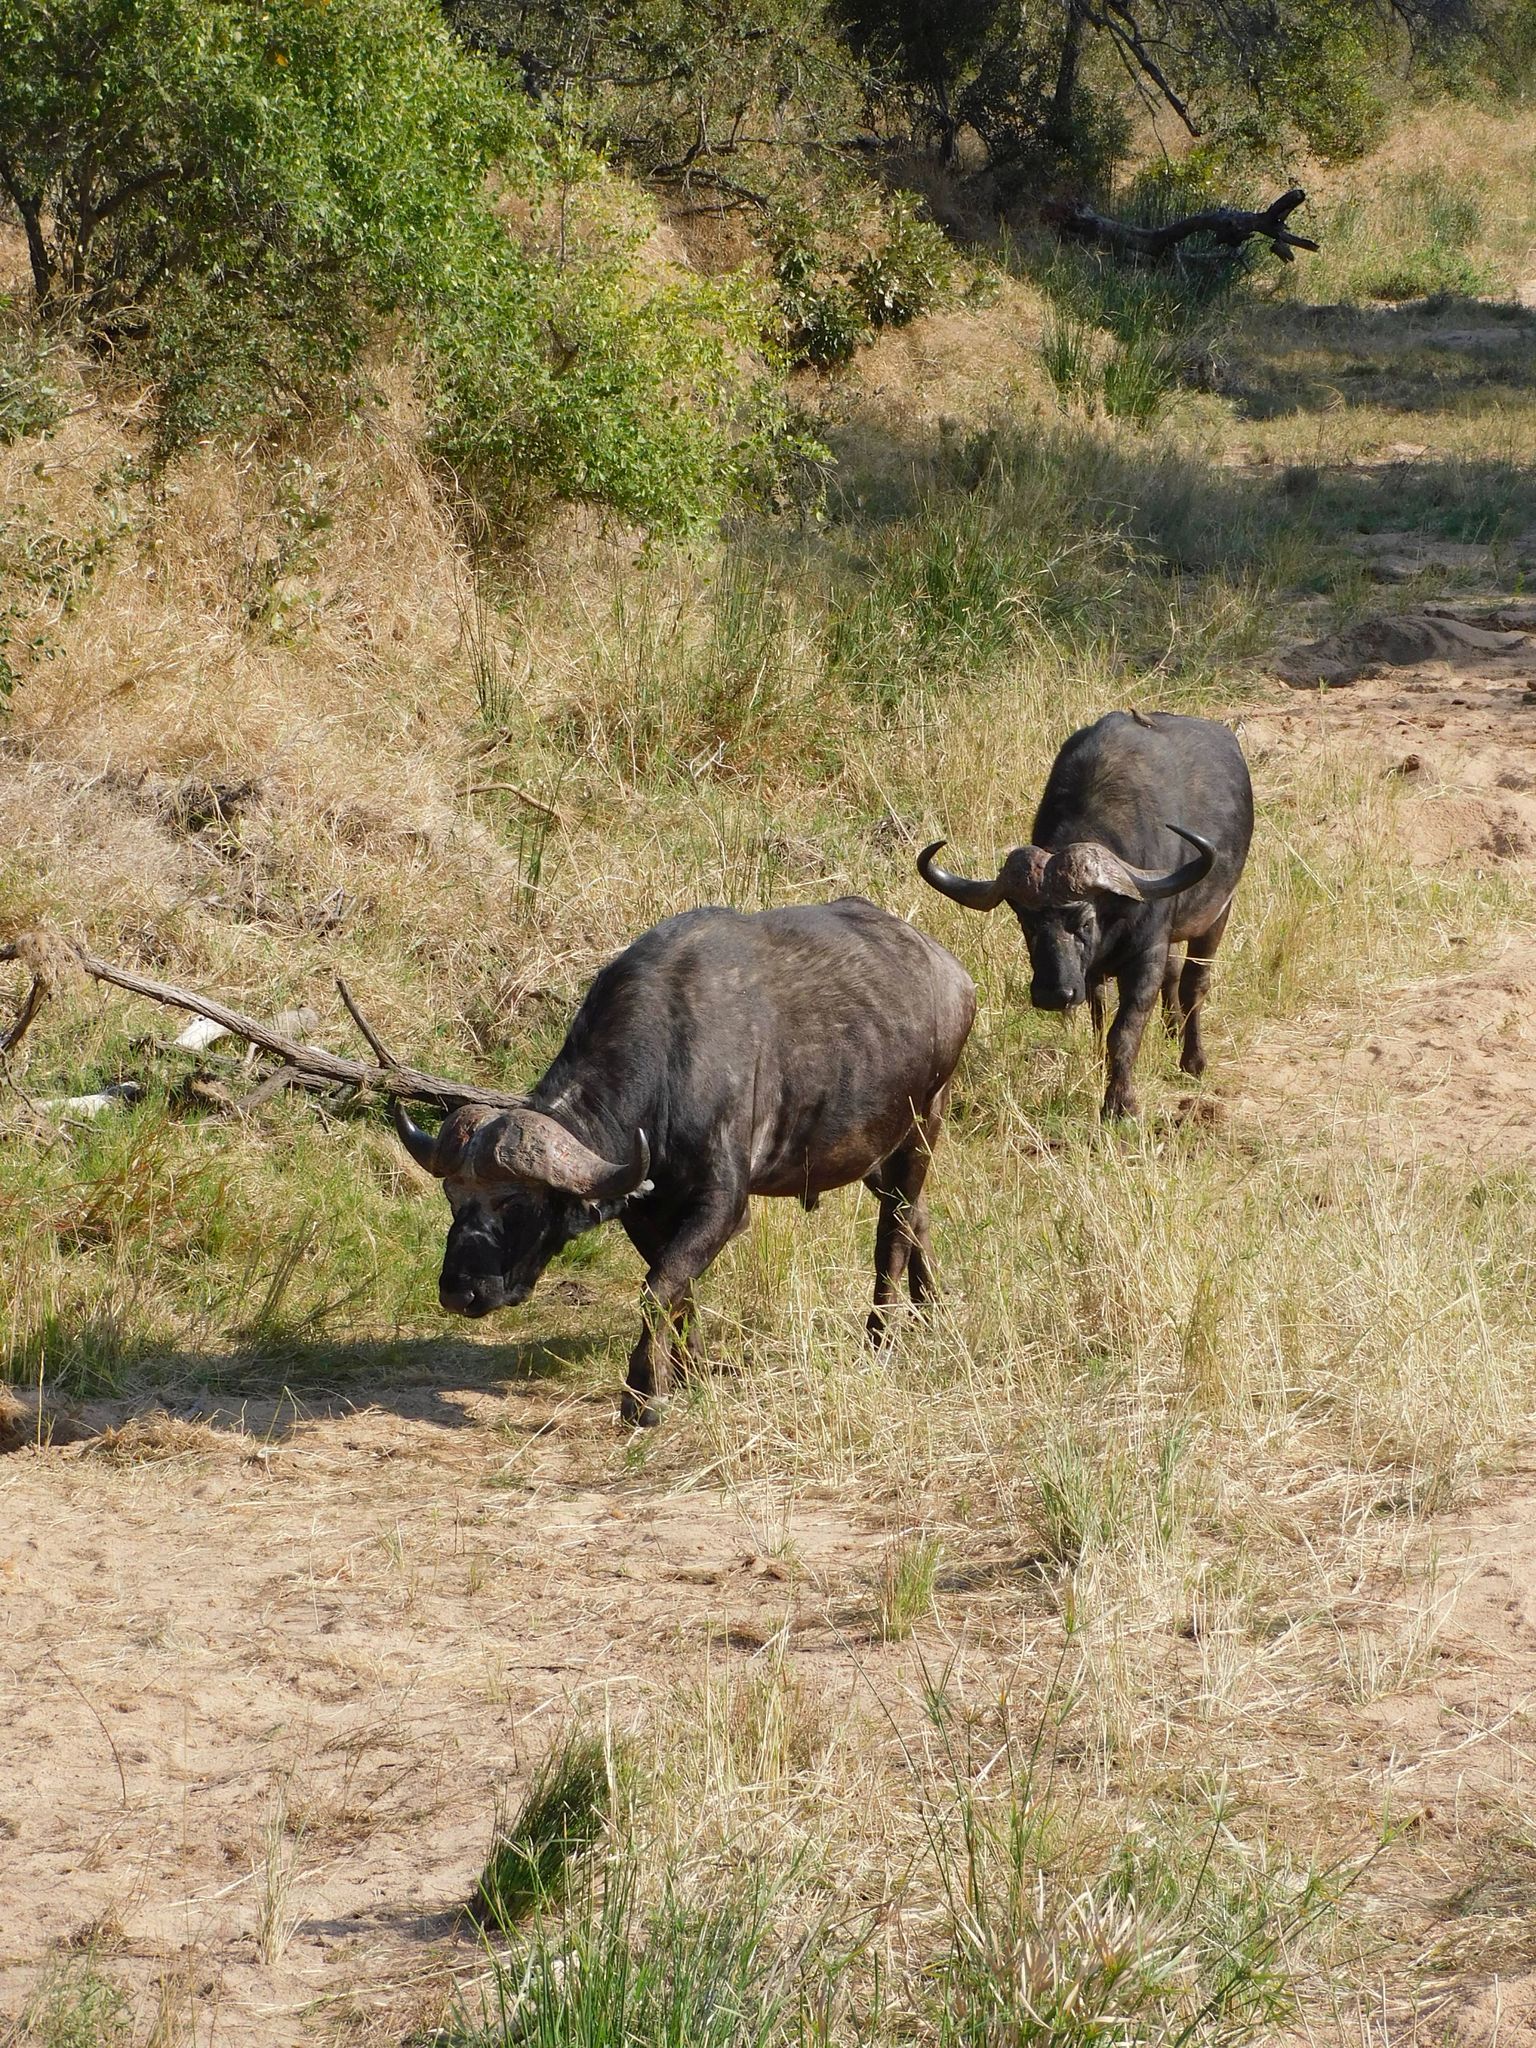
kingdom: Animalia
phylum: Chordata
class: Mammalia
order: Artiodactyla
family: Bovidae
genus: Syncerus
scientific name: Syncerus caffer
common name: African buffalo
